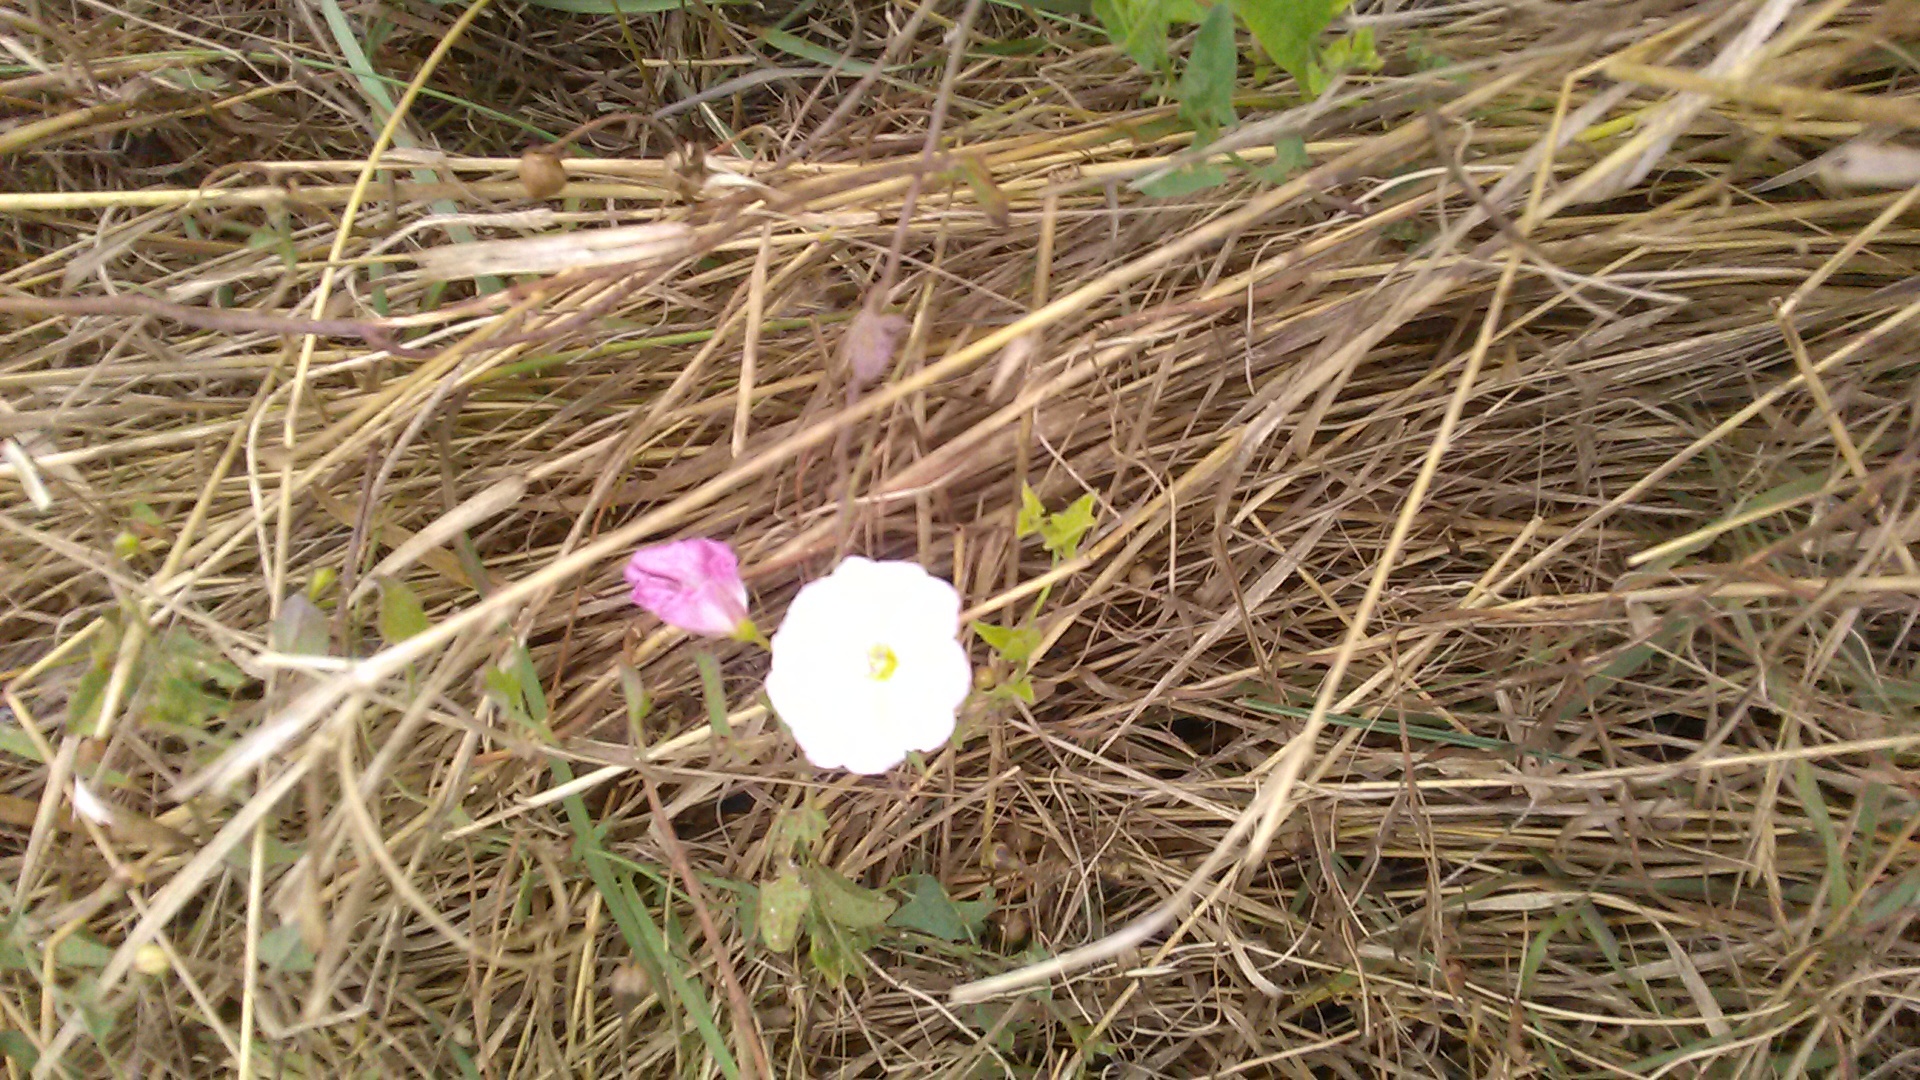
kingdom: Plantae
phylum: Tracheophyta
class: Magnoliopsida
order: Solanales
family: Convolvulaceae
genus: Convolvulus
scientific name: Convolvulus arvensis
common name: Field bindweed
